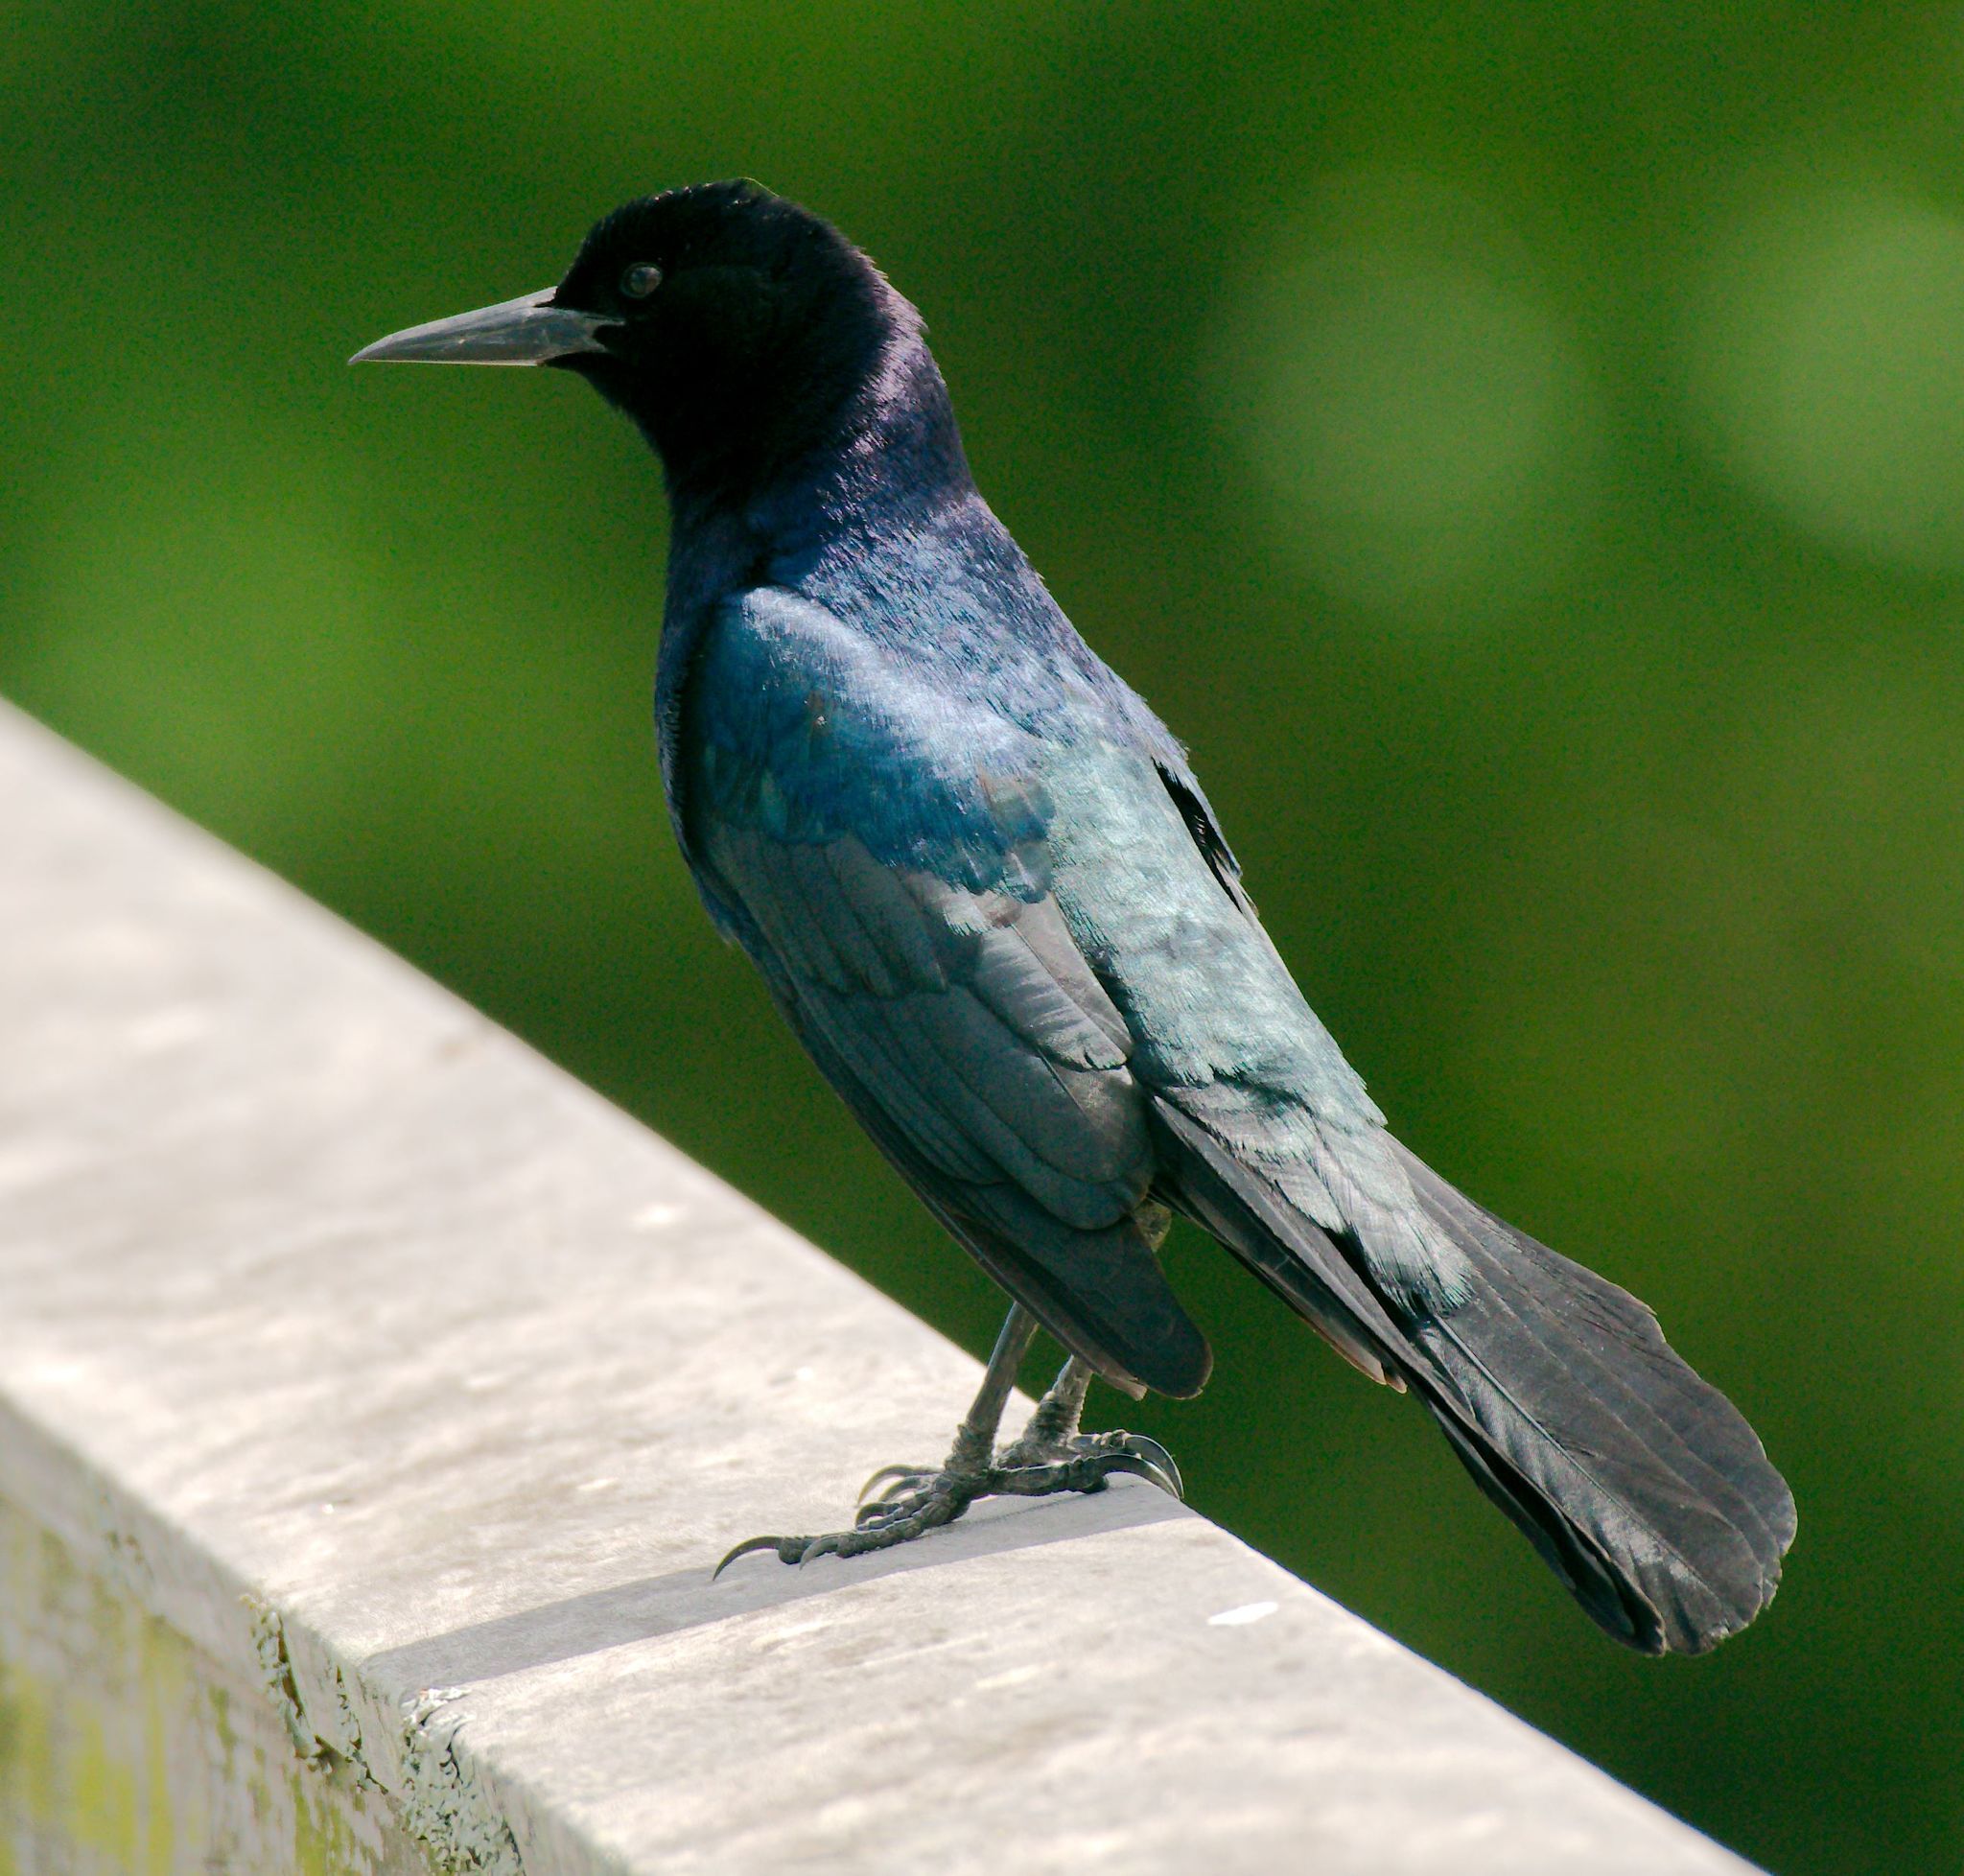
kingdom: Animalia
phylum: Chordata
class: Aves
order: Passeriformes
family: Icteridae
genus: Quiscalus
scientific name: Quiscalus major
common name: Boat-tailed grackle
